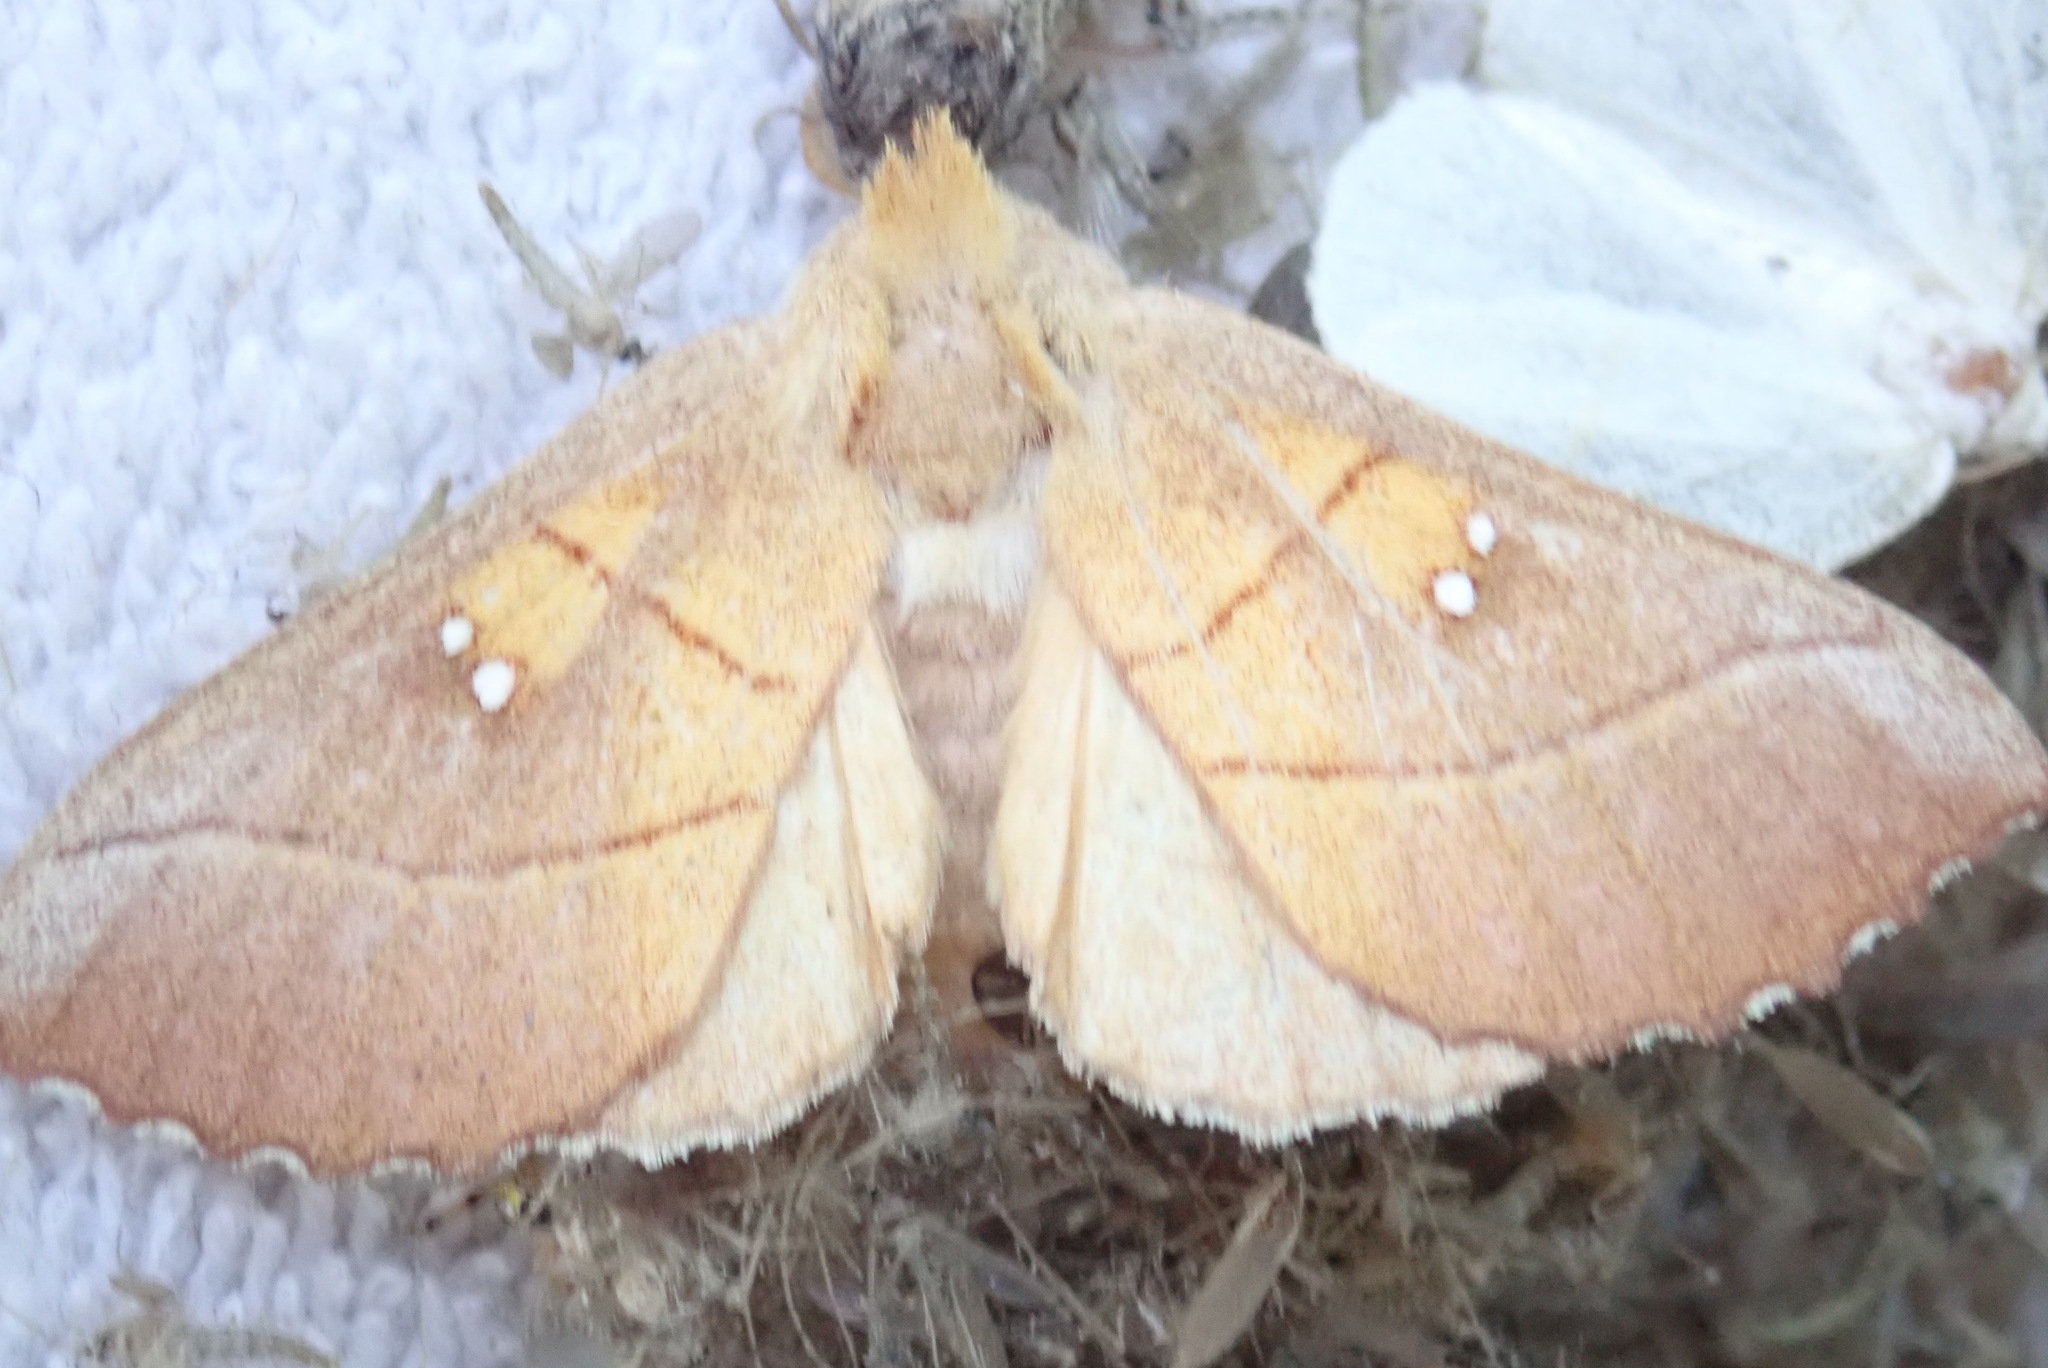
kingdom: Animalia
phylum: Arthropoda
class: Insecta
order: Lepidoptera
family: Notodontidae
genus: Nadata
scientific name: Nadata gibbosa
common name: White-dotted prominent
